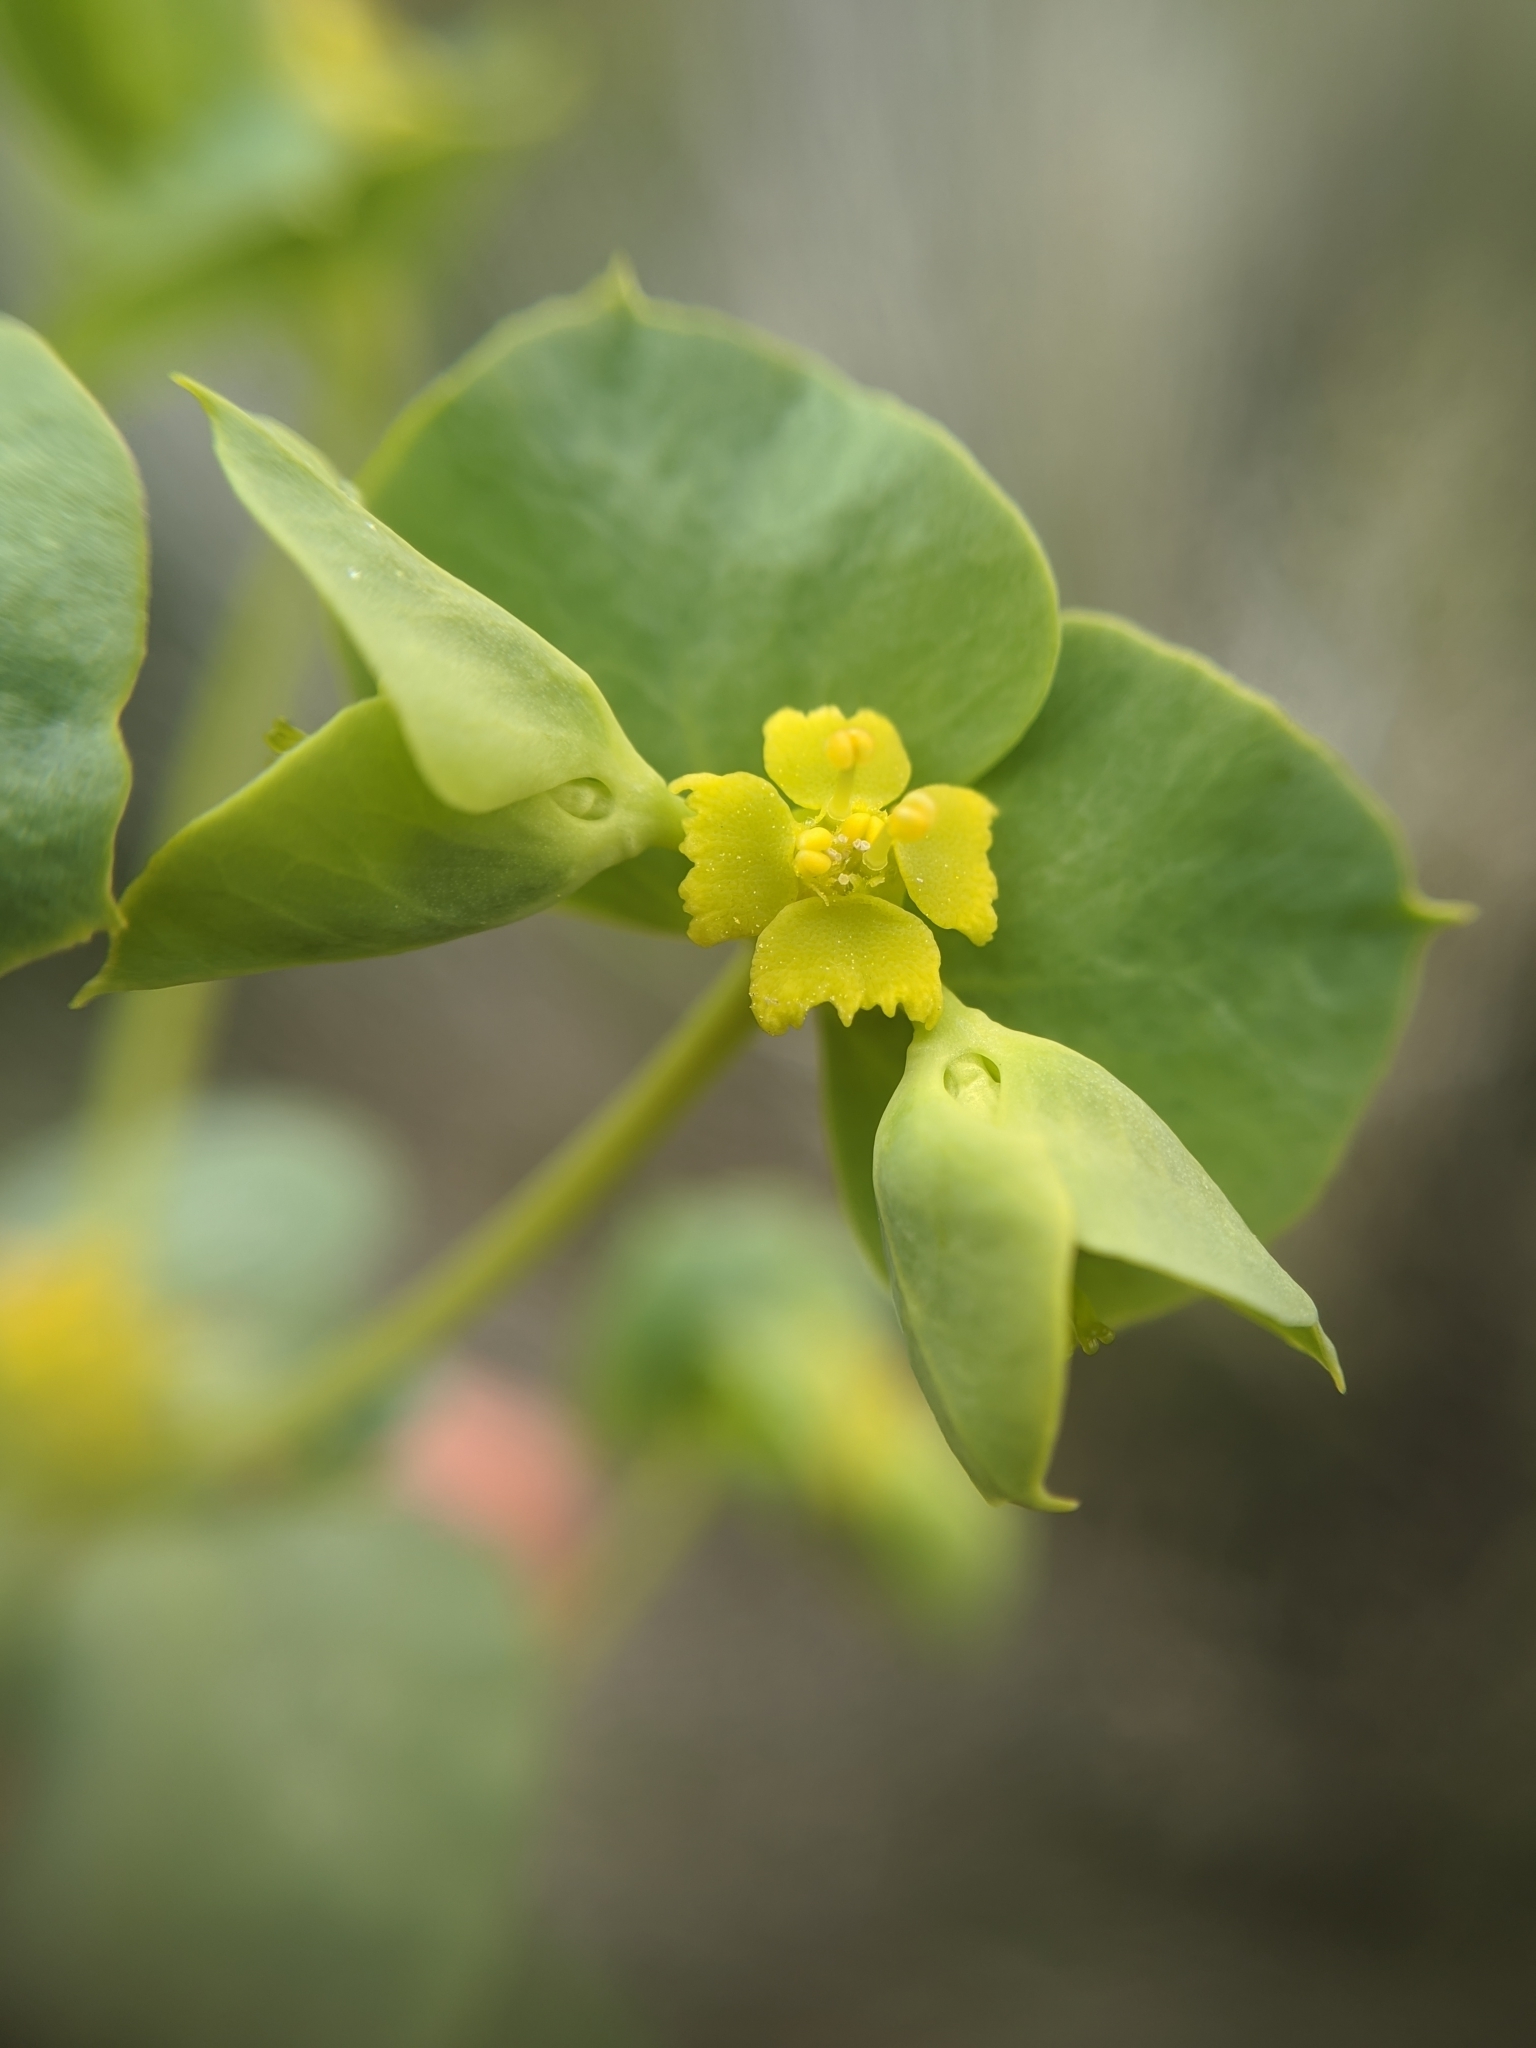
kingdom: Plantae
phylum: Tracheophyta
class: Magnoliopsida
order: Malpighiales
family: Euphorbiaceae
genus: Euphorbia
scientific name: Euphorbia schizoloba
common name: Mojave spurge
